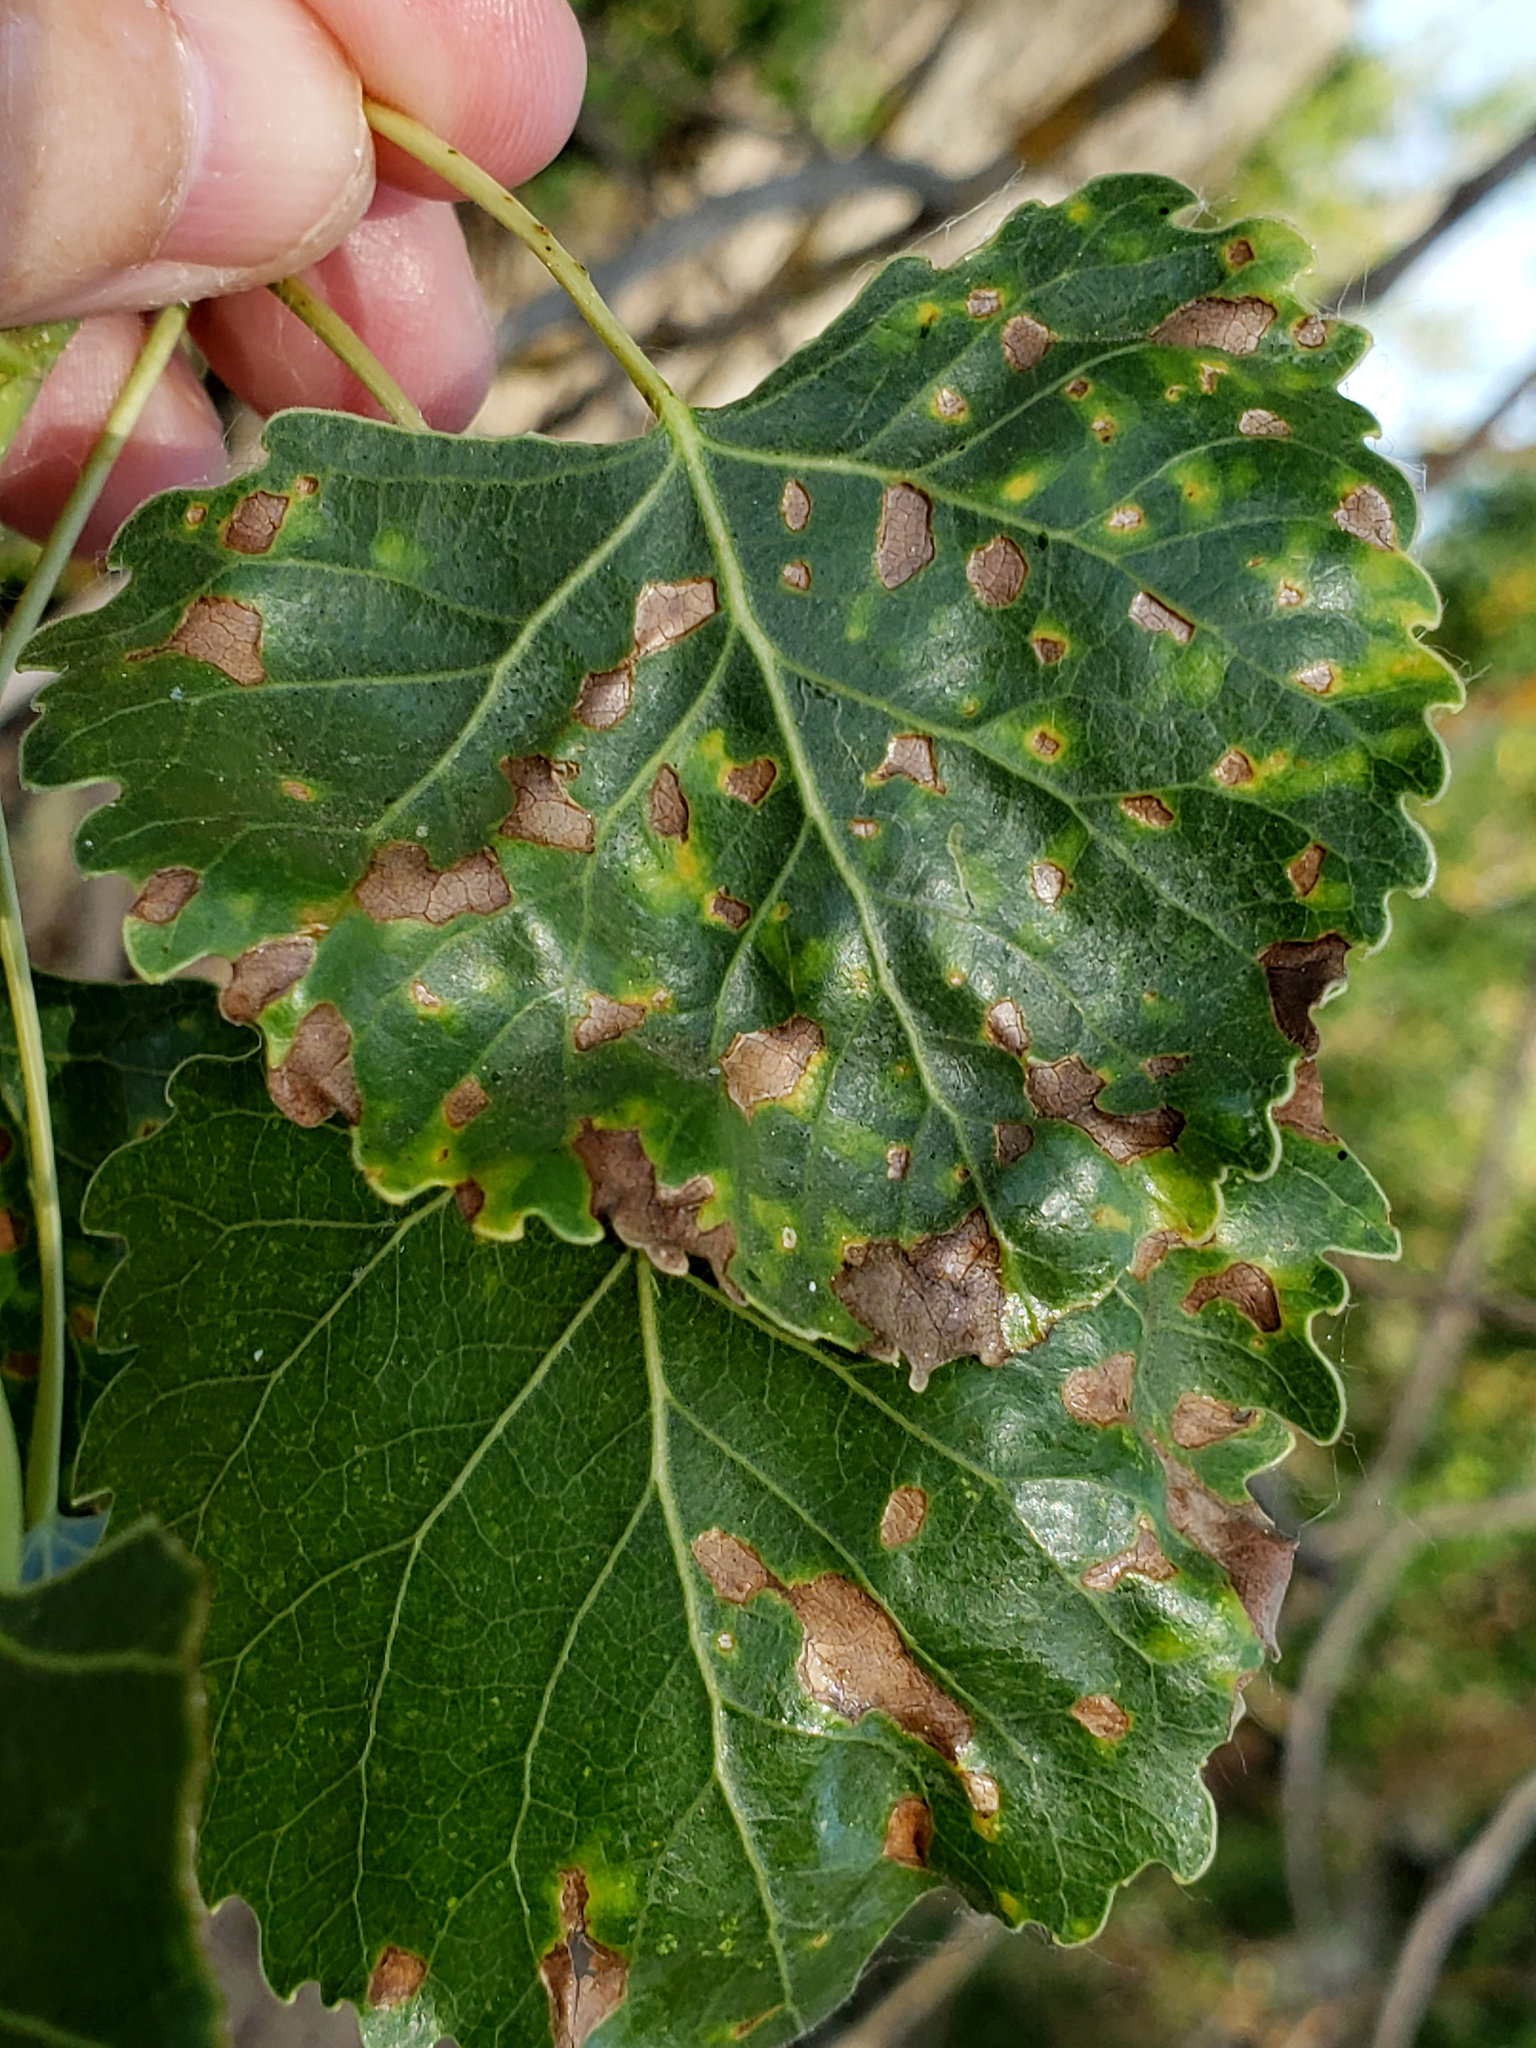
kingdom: Fungi
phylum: Ascomycota
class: Taphrinomycetes
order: Taphrinales
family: Taphrinaceae
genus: Taphrina
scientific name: Taphrina populi-salicis
